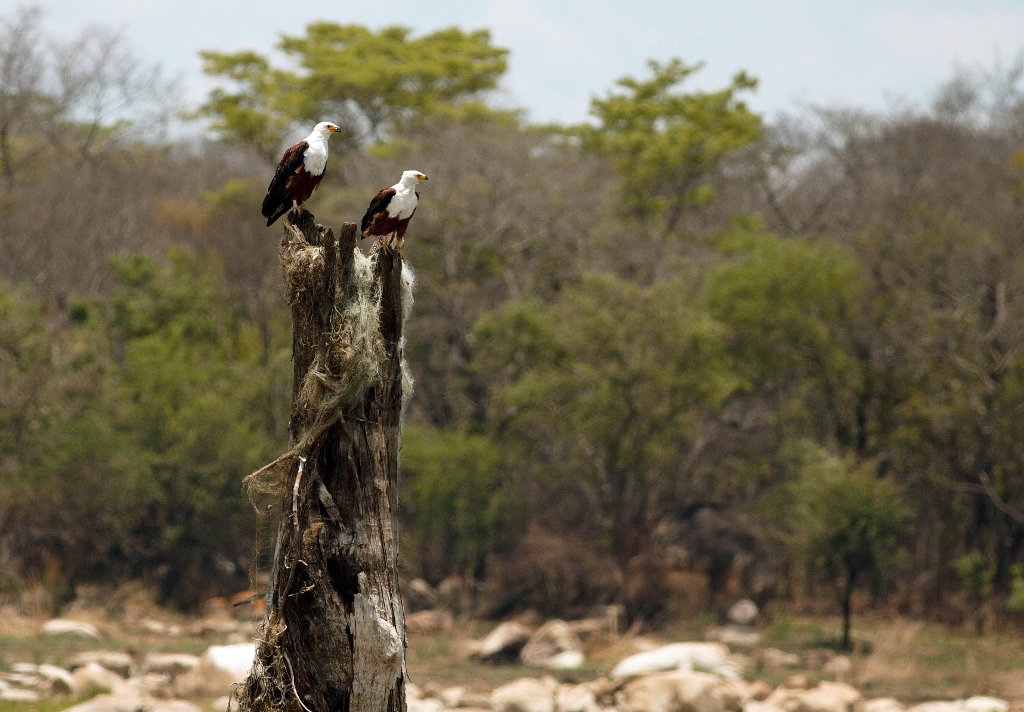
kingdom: Animalia
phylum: Chordata
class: Aves
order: Accipitriformes
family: Accipitridae
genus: Haliaeetus
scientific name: Haliaeetus vocifer
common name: African fish eagle
